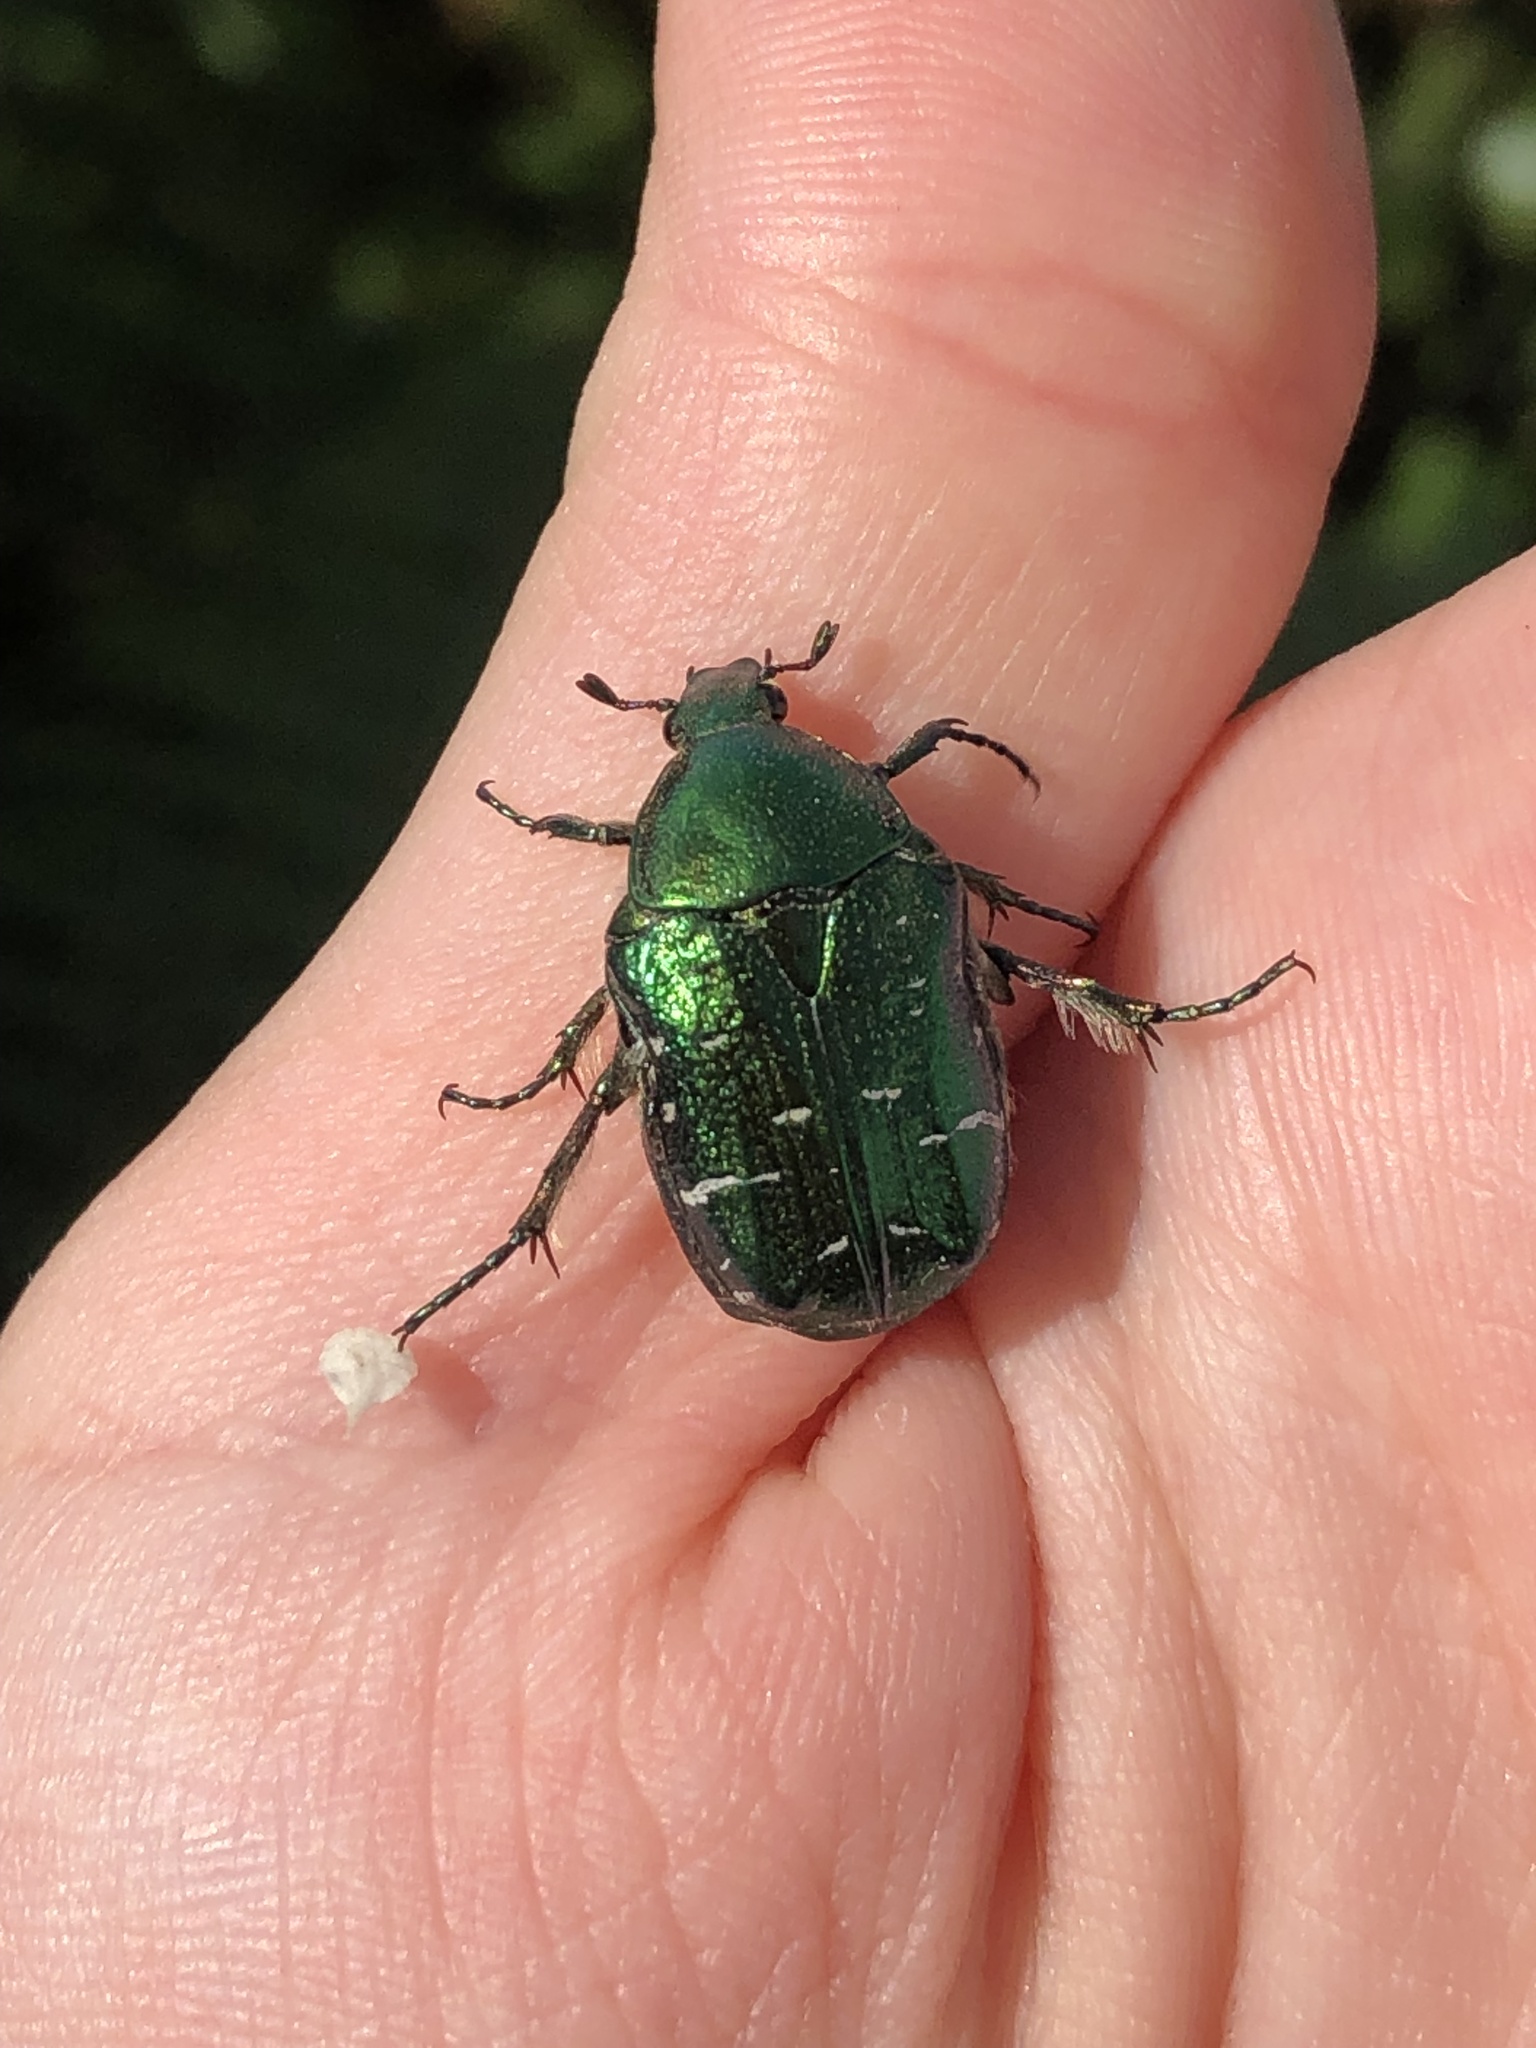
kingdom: Animalia
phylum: Arthropoda
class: Insecta
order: Coleoptera
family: Scarabaeidae
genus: Cetonia
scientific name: Cetonia aurata
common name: Rose chafer
